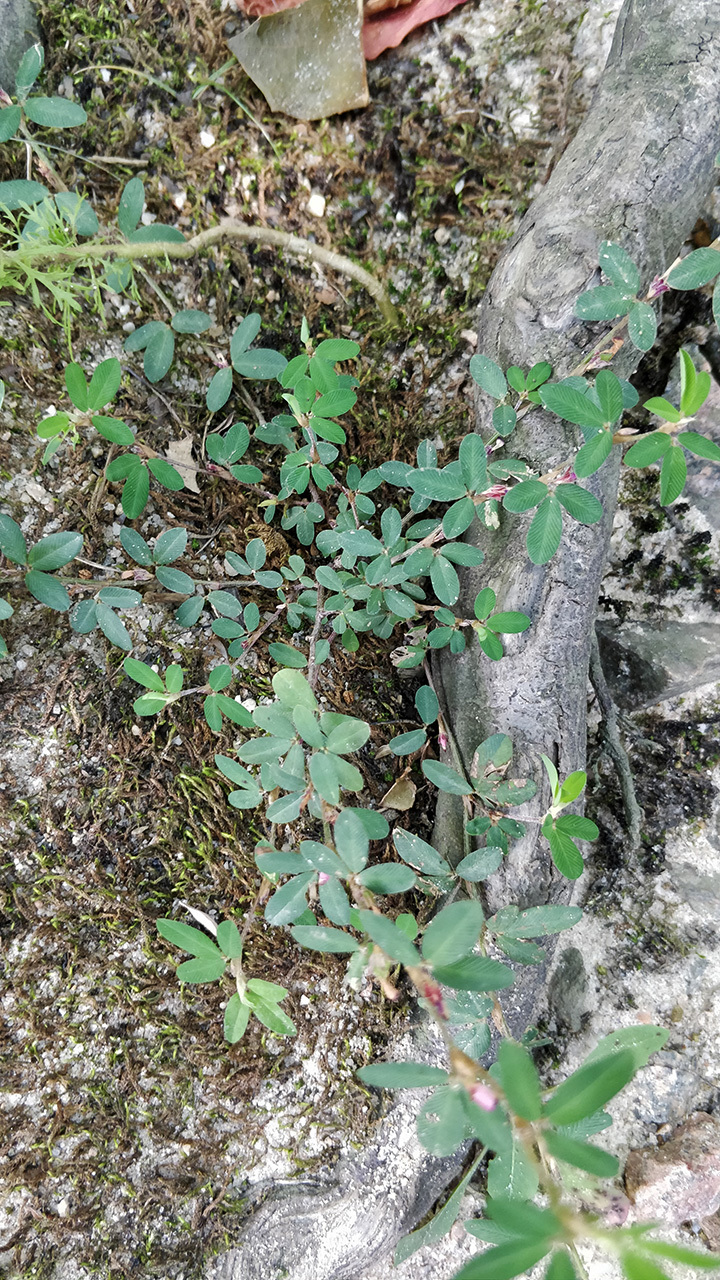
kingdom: Plantae
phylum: Tracheophyta
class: Magnoliopsida
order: Fabales
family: Fabaceae
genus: Kummerowia
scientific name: Kummerowia striata
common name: Japanese clover
